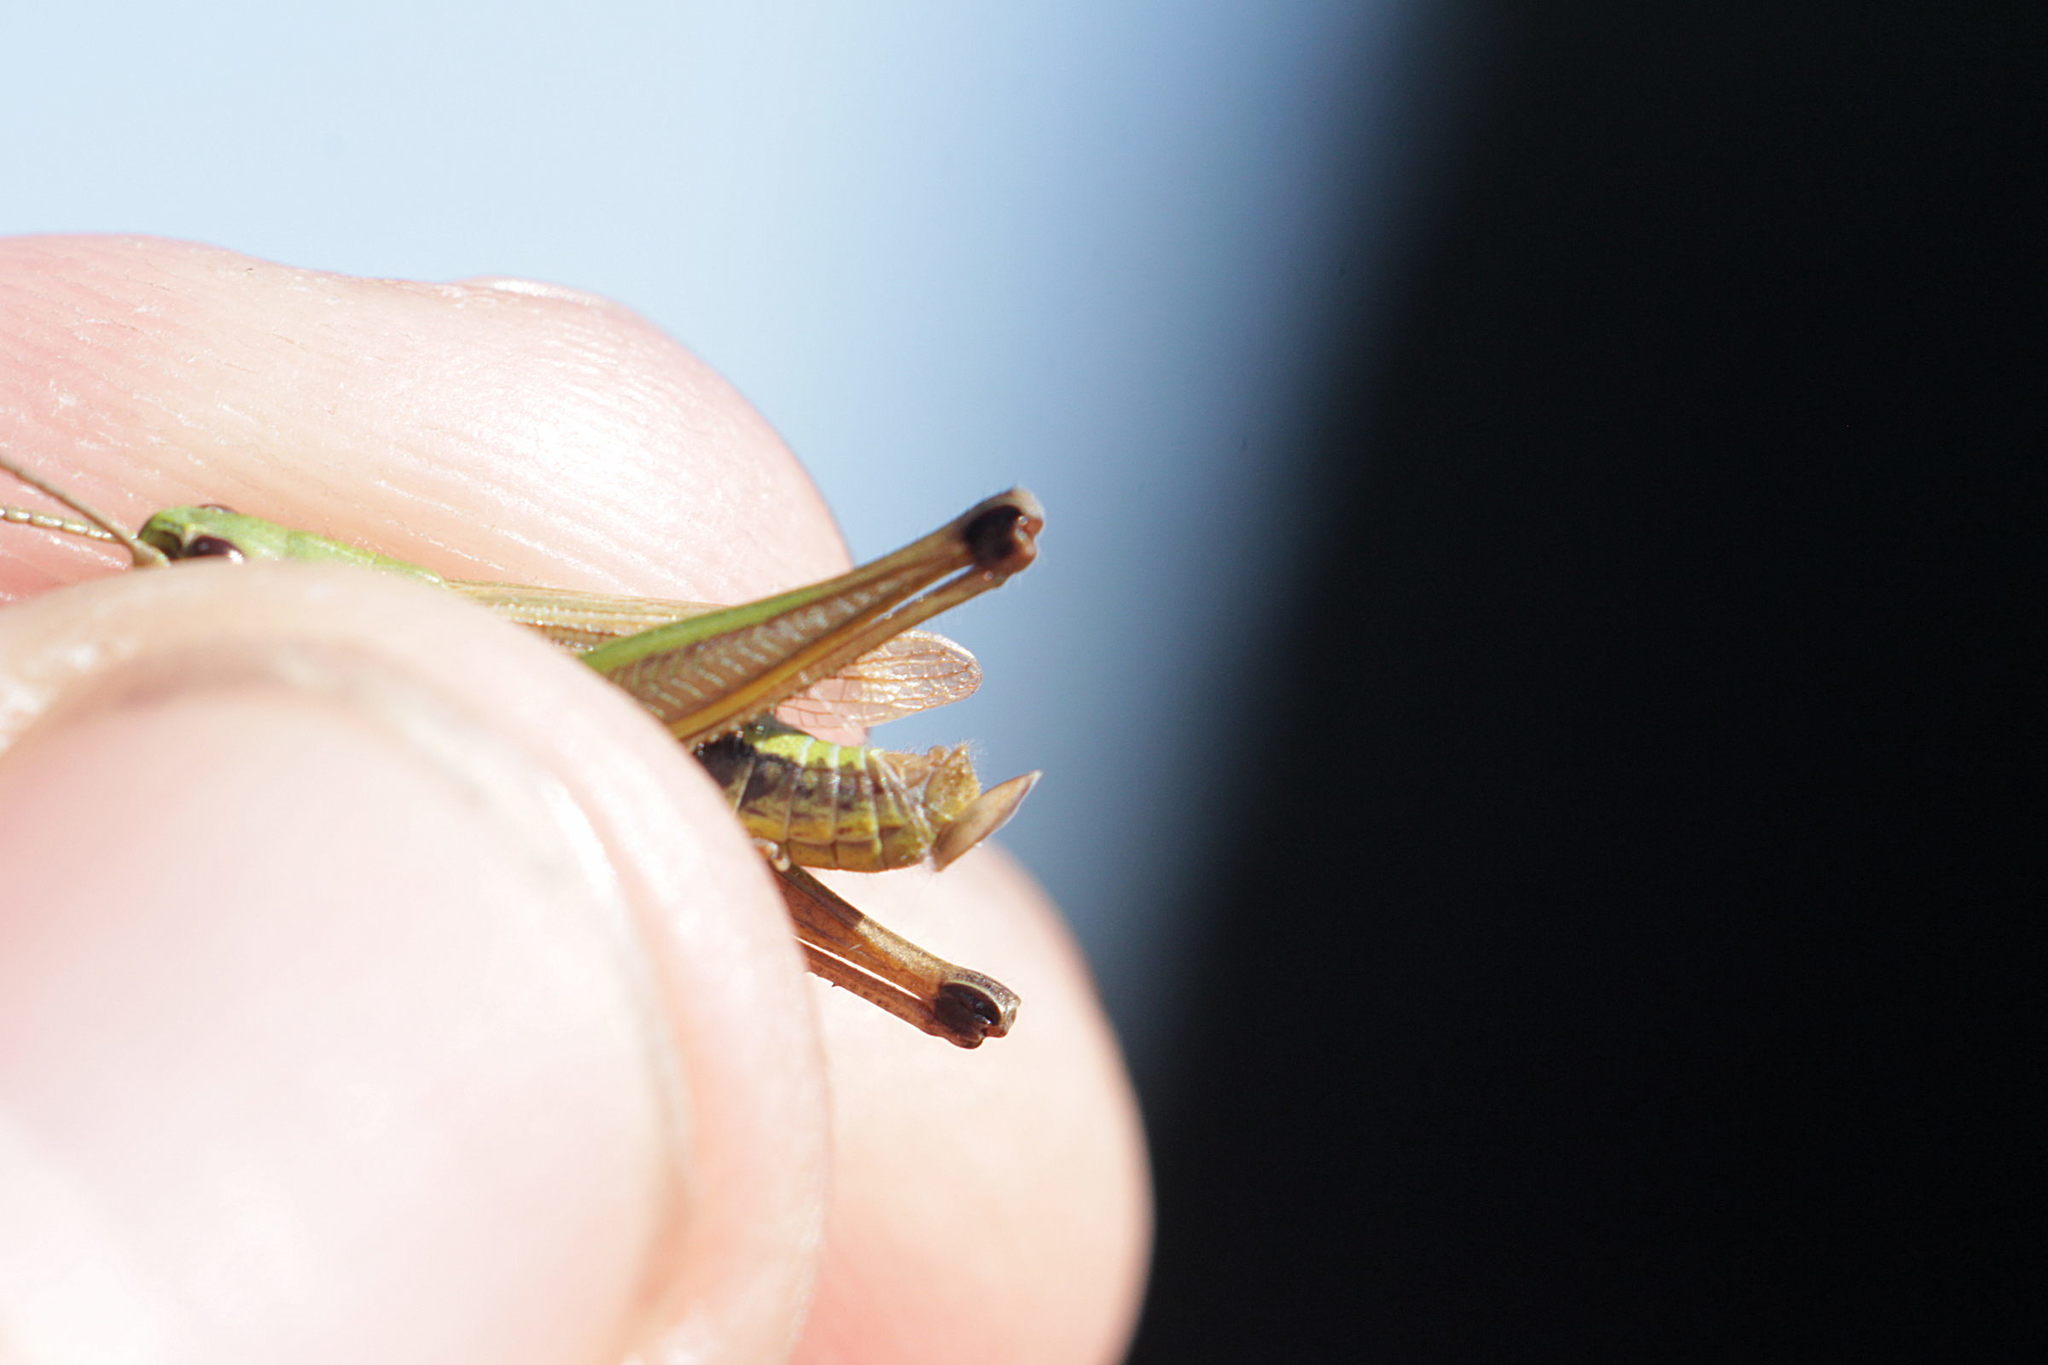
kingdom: Animalia
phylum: Arthropoda
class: Insecta
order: Orthoptera
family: Acrididae
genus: Pseudochorthippus
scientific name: Pseudochorthippus parallelus
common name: Meadow grasshopper
